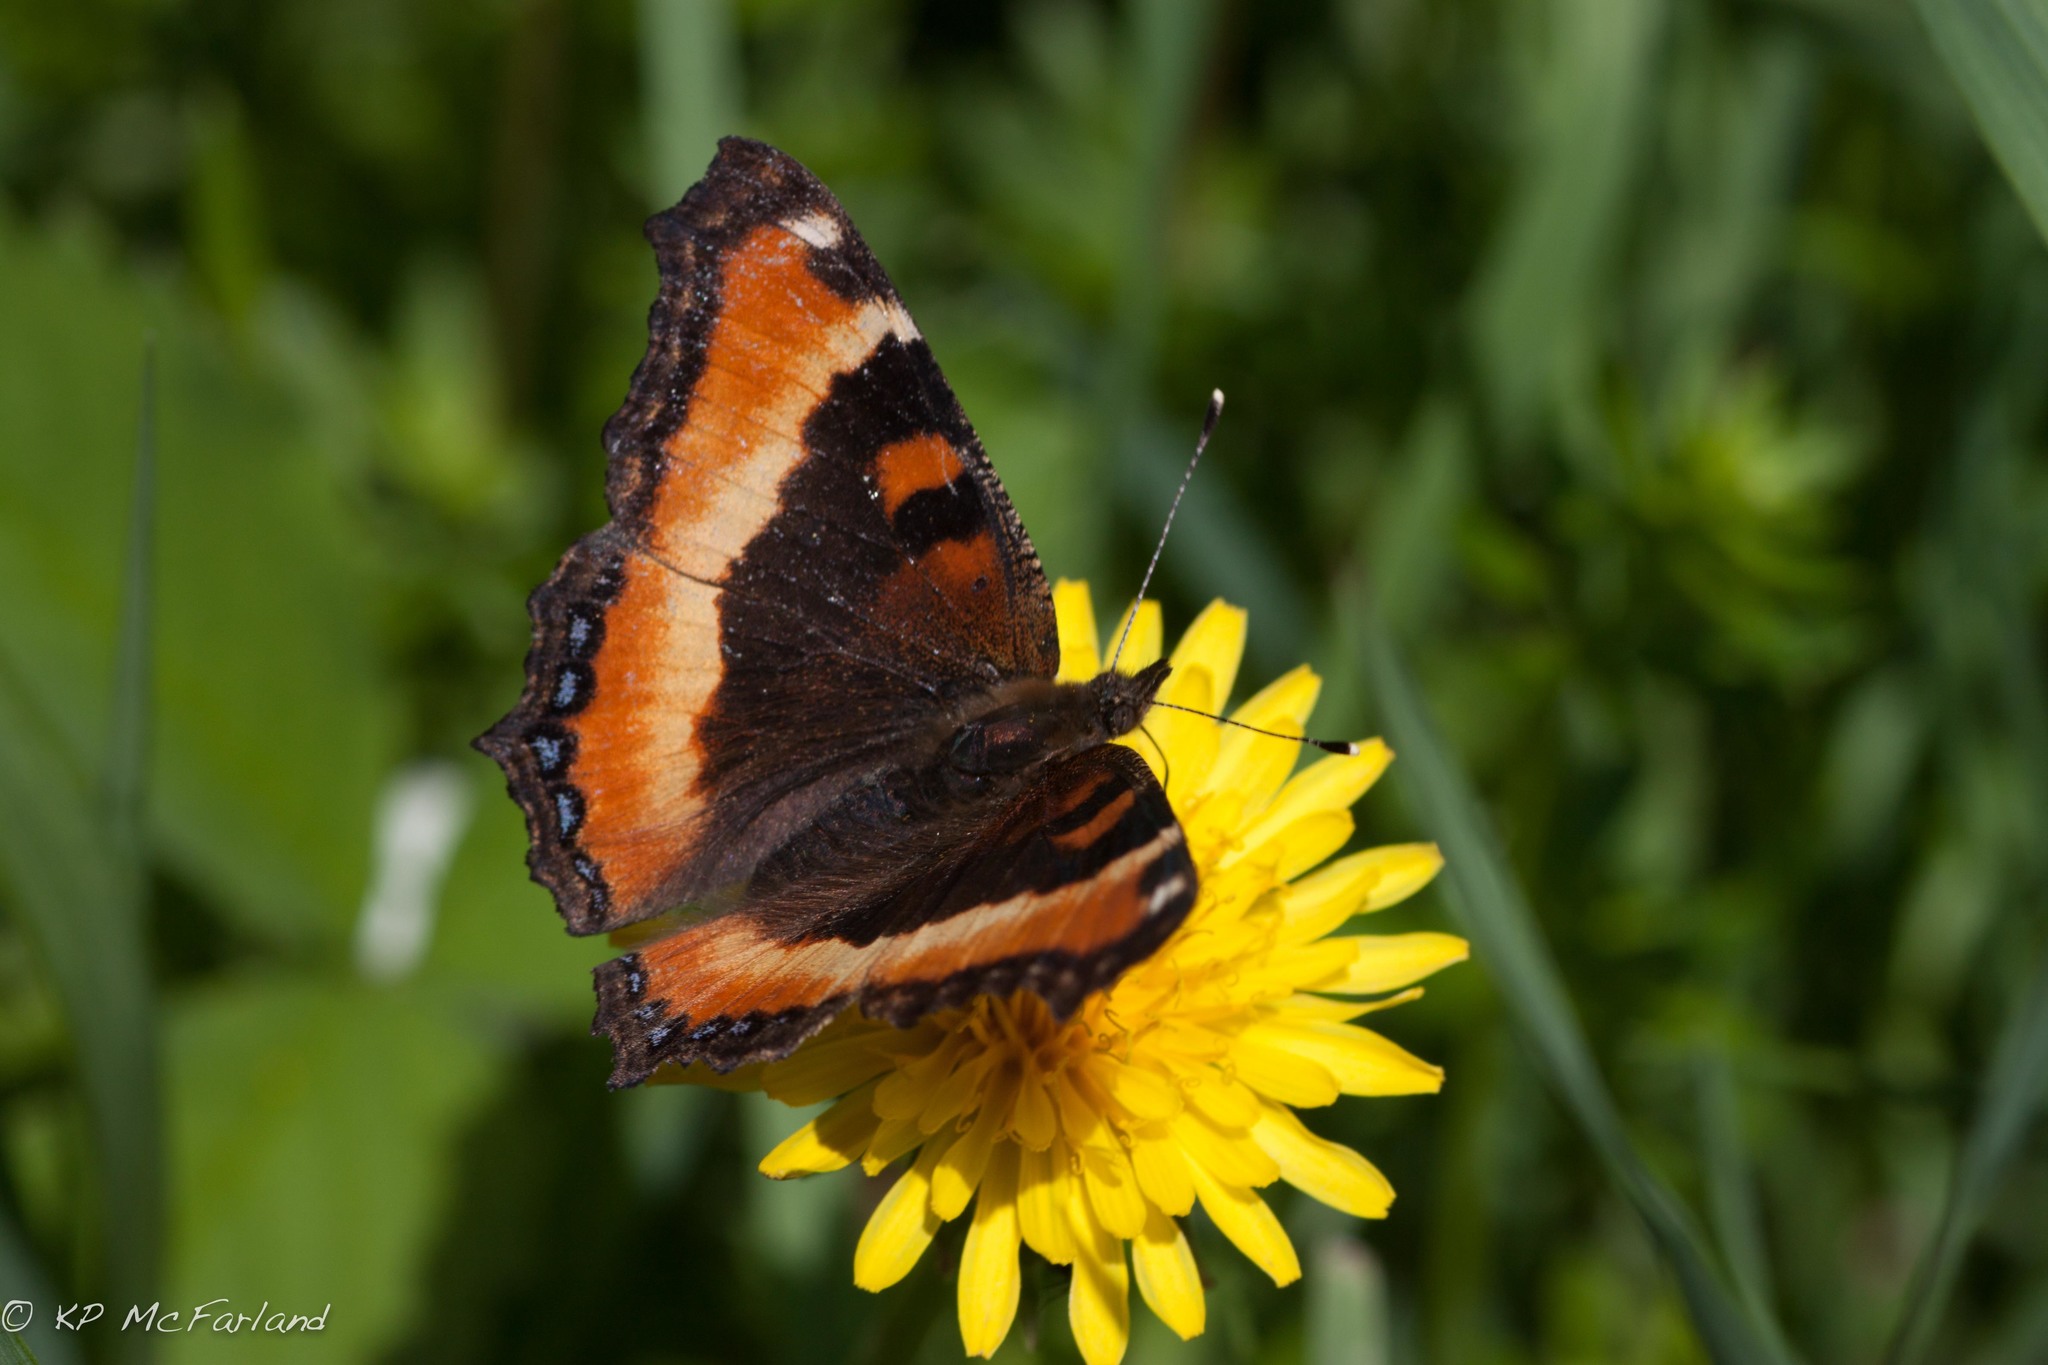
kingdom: Animalia
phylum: Arthropoda
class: Insecta
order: Lepidoptera
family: Nymphalidae
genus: Aglais
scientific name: Aglais milberti
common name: Milbert's tortoiseshell
